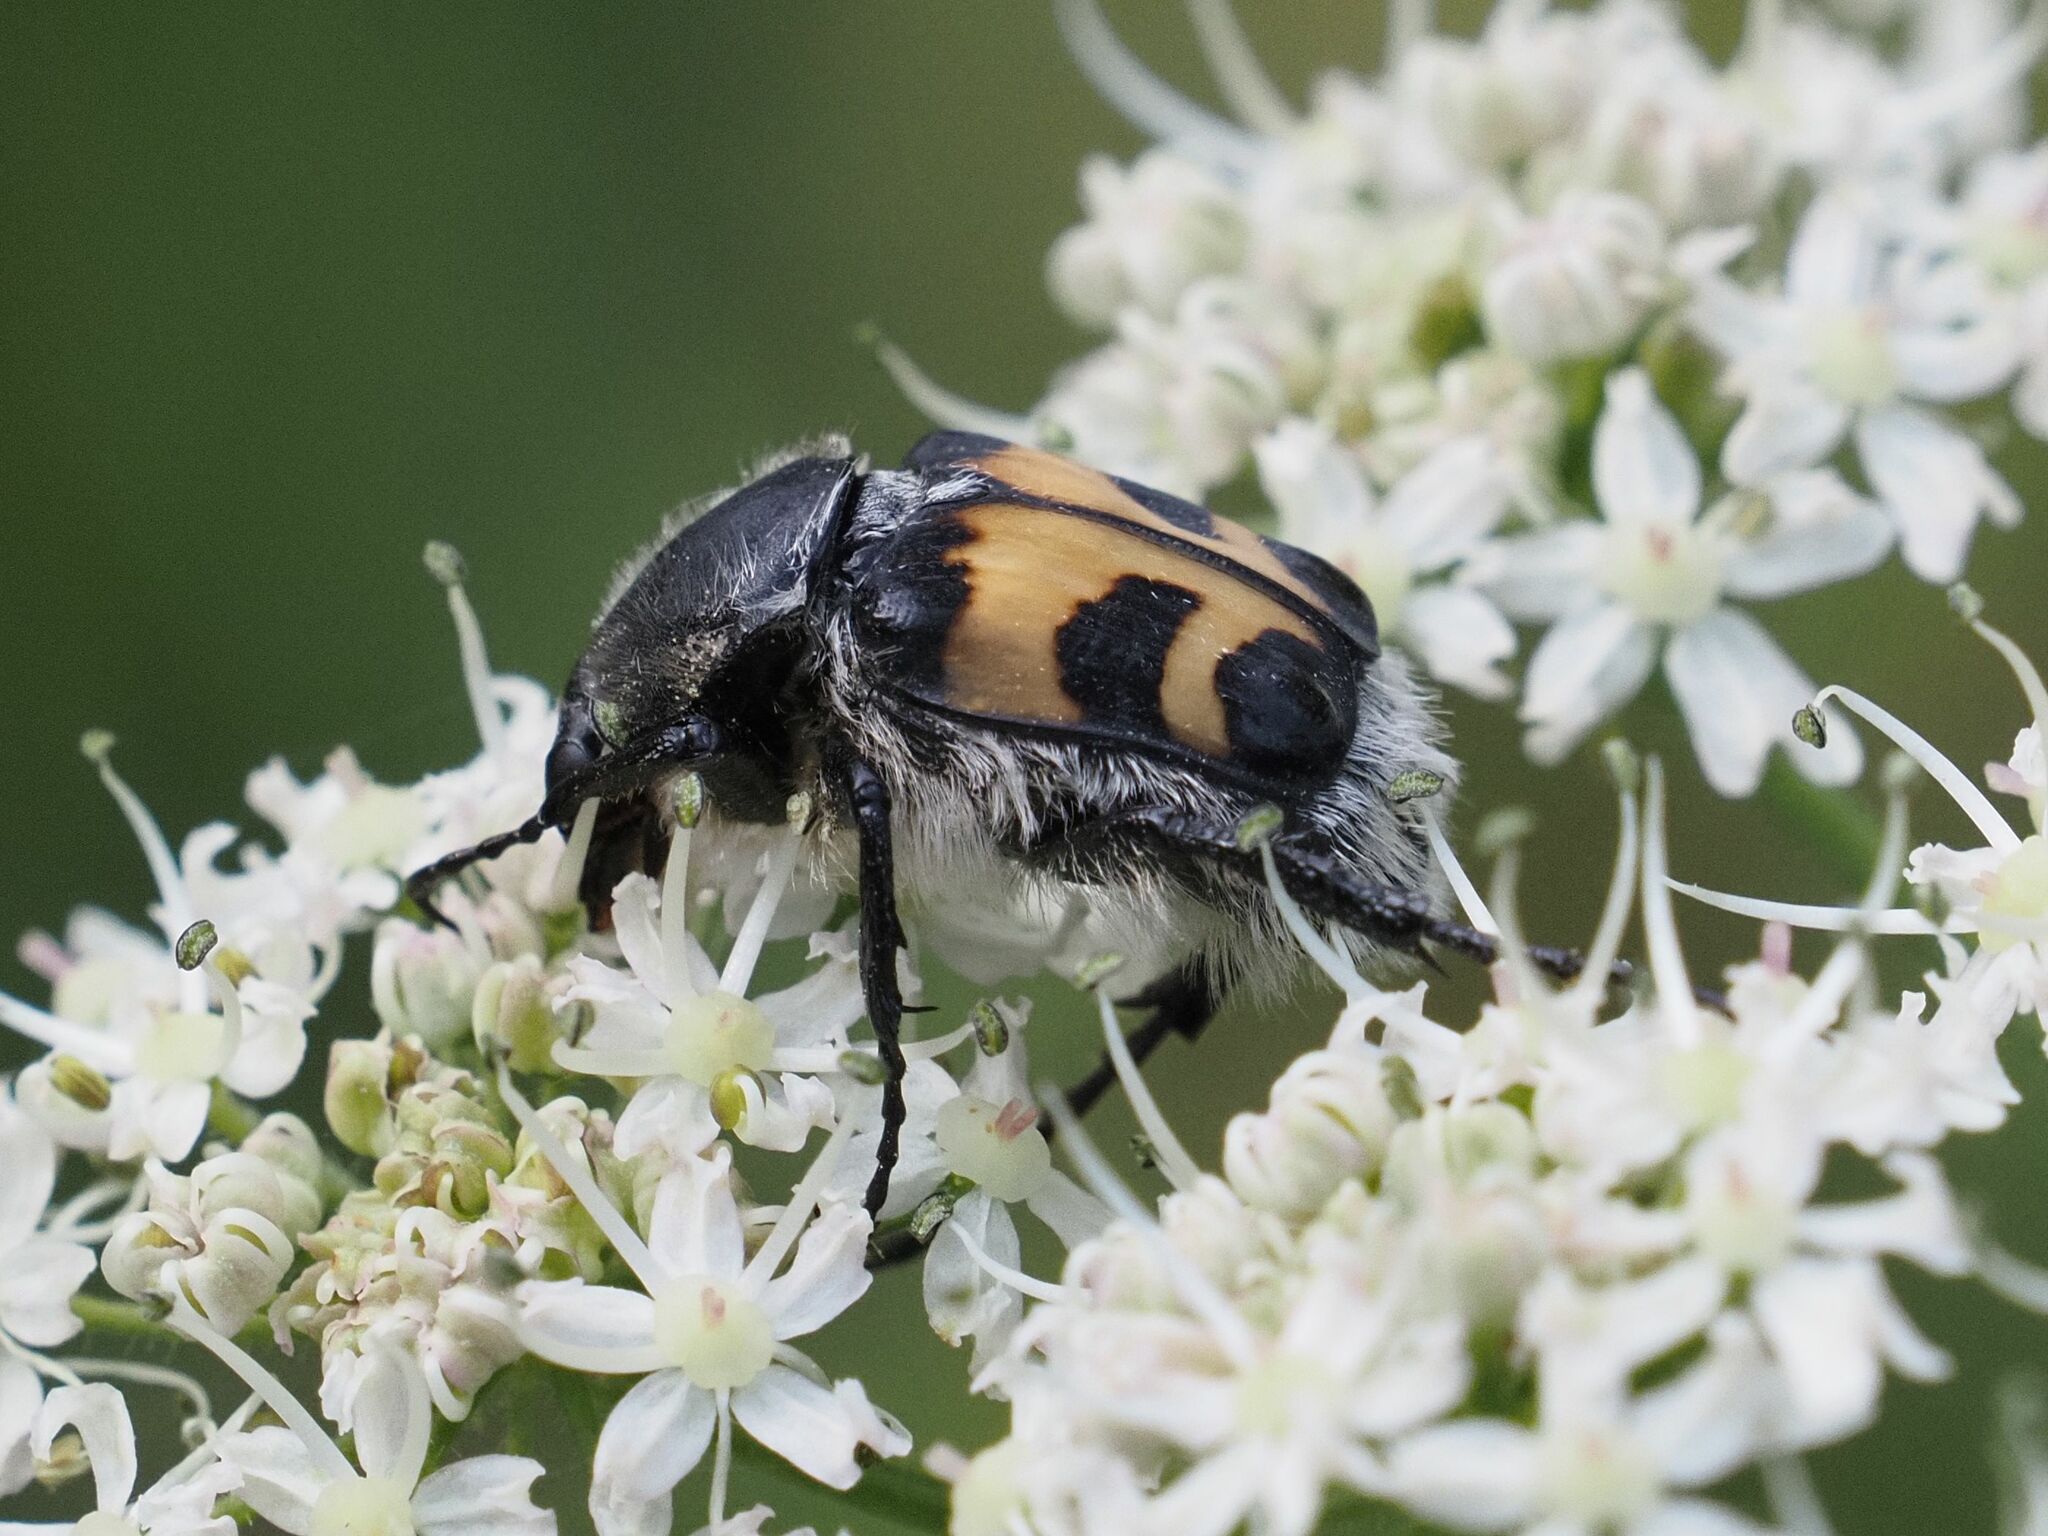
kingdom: Animalia
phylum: Arthropoda
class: Insecta
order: Coleoptera
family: Scarabaeidae
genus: Trichius
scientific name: Trichius fasciatus
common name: Bee beetle
